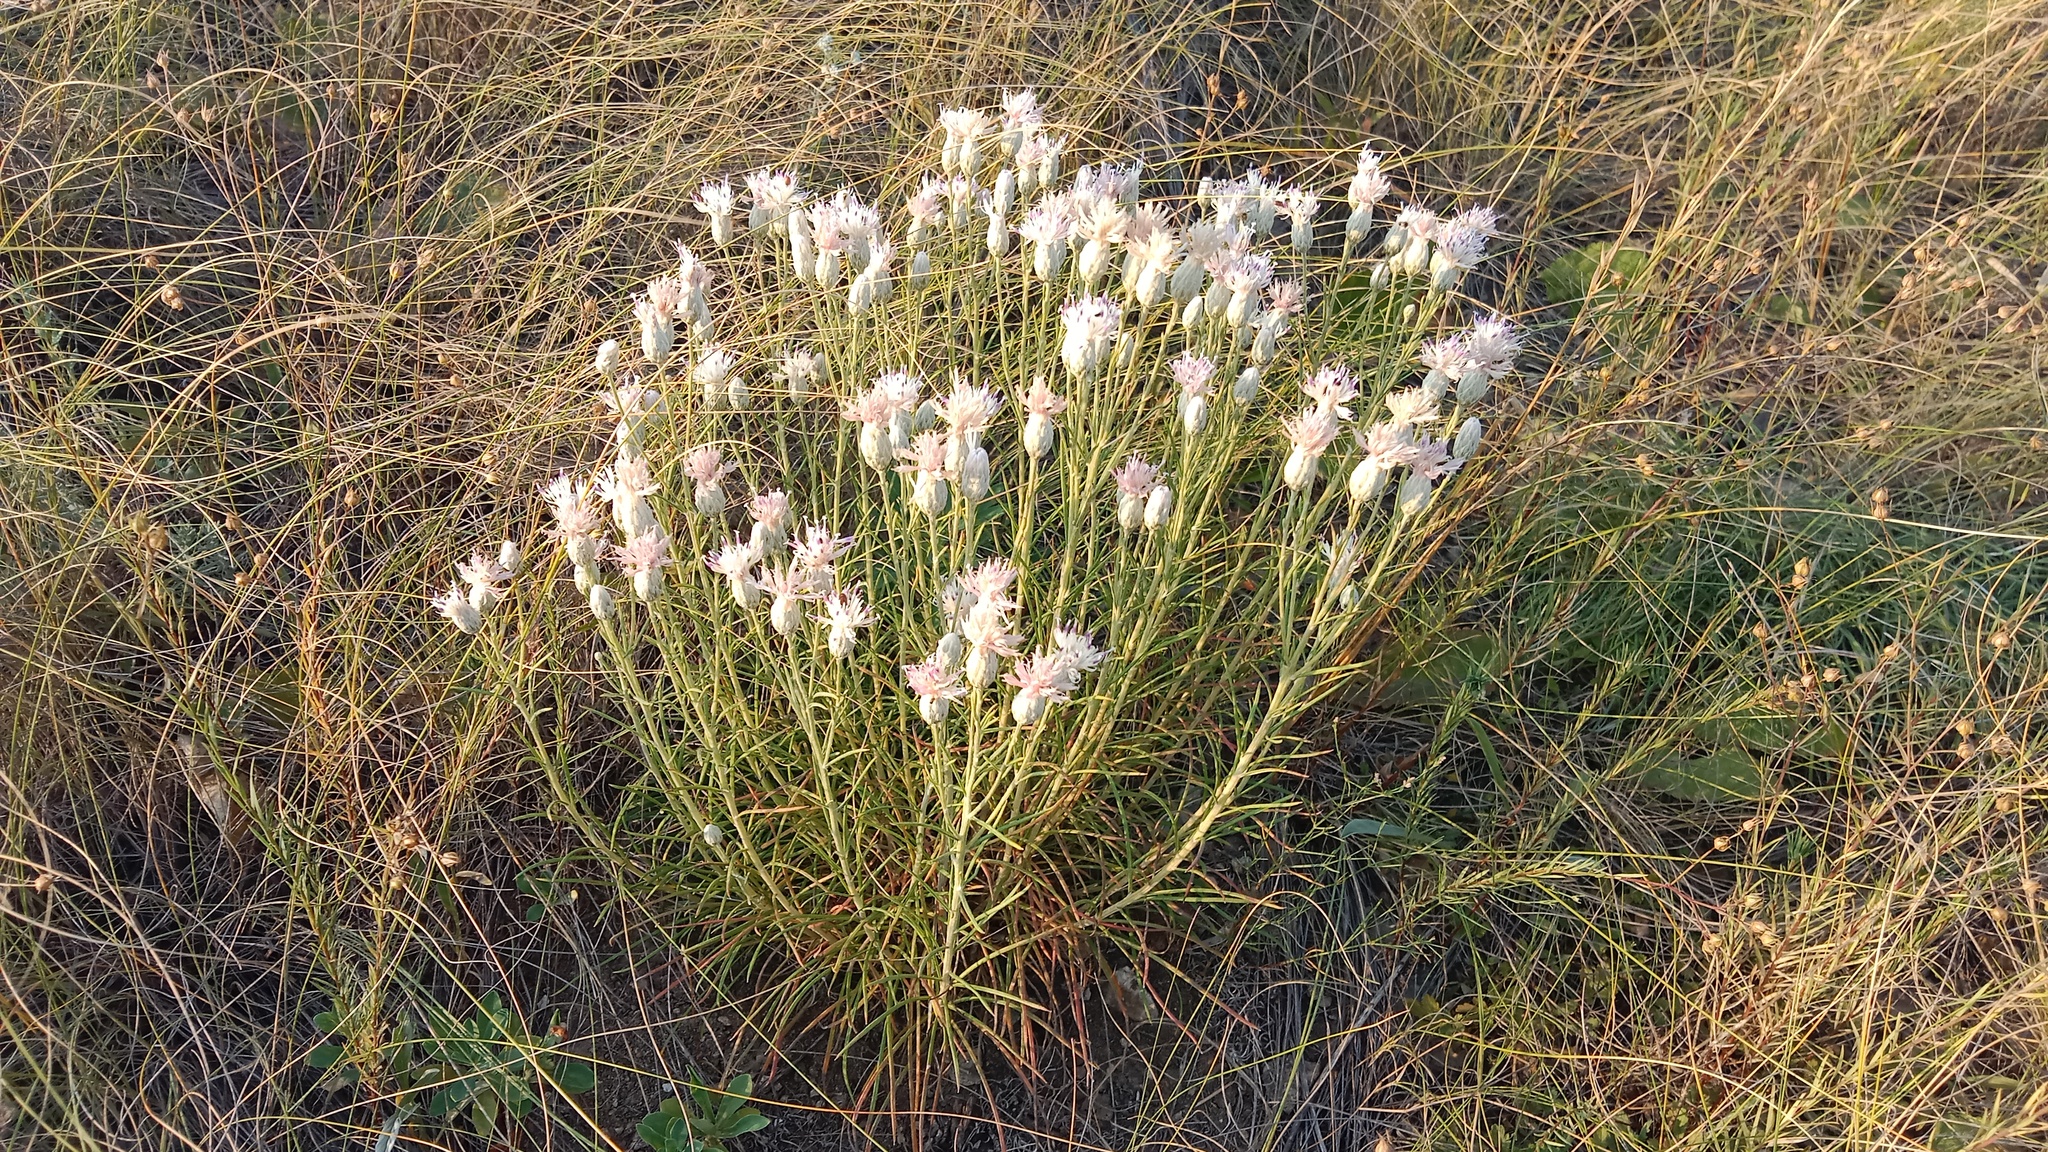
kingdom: Plantae
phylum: Tracheophyta
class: Magnoliopsida
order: Asterales
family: Asteraceae
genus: Jurinea
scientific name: Jurinea stoechadifolia
